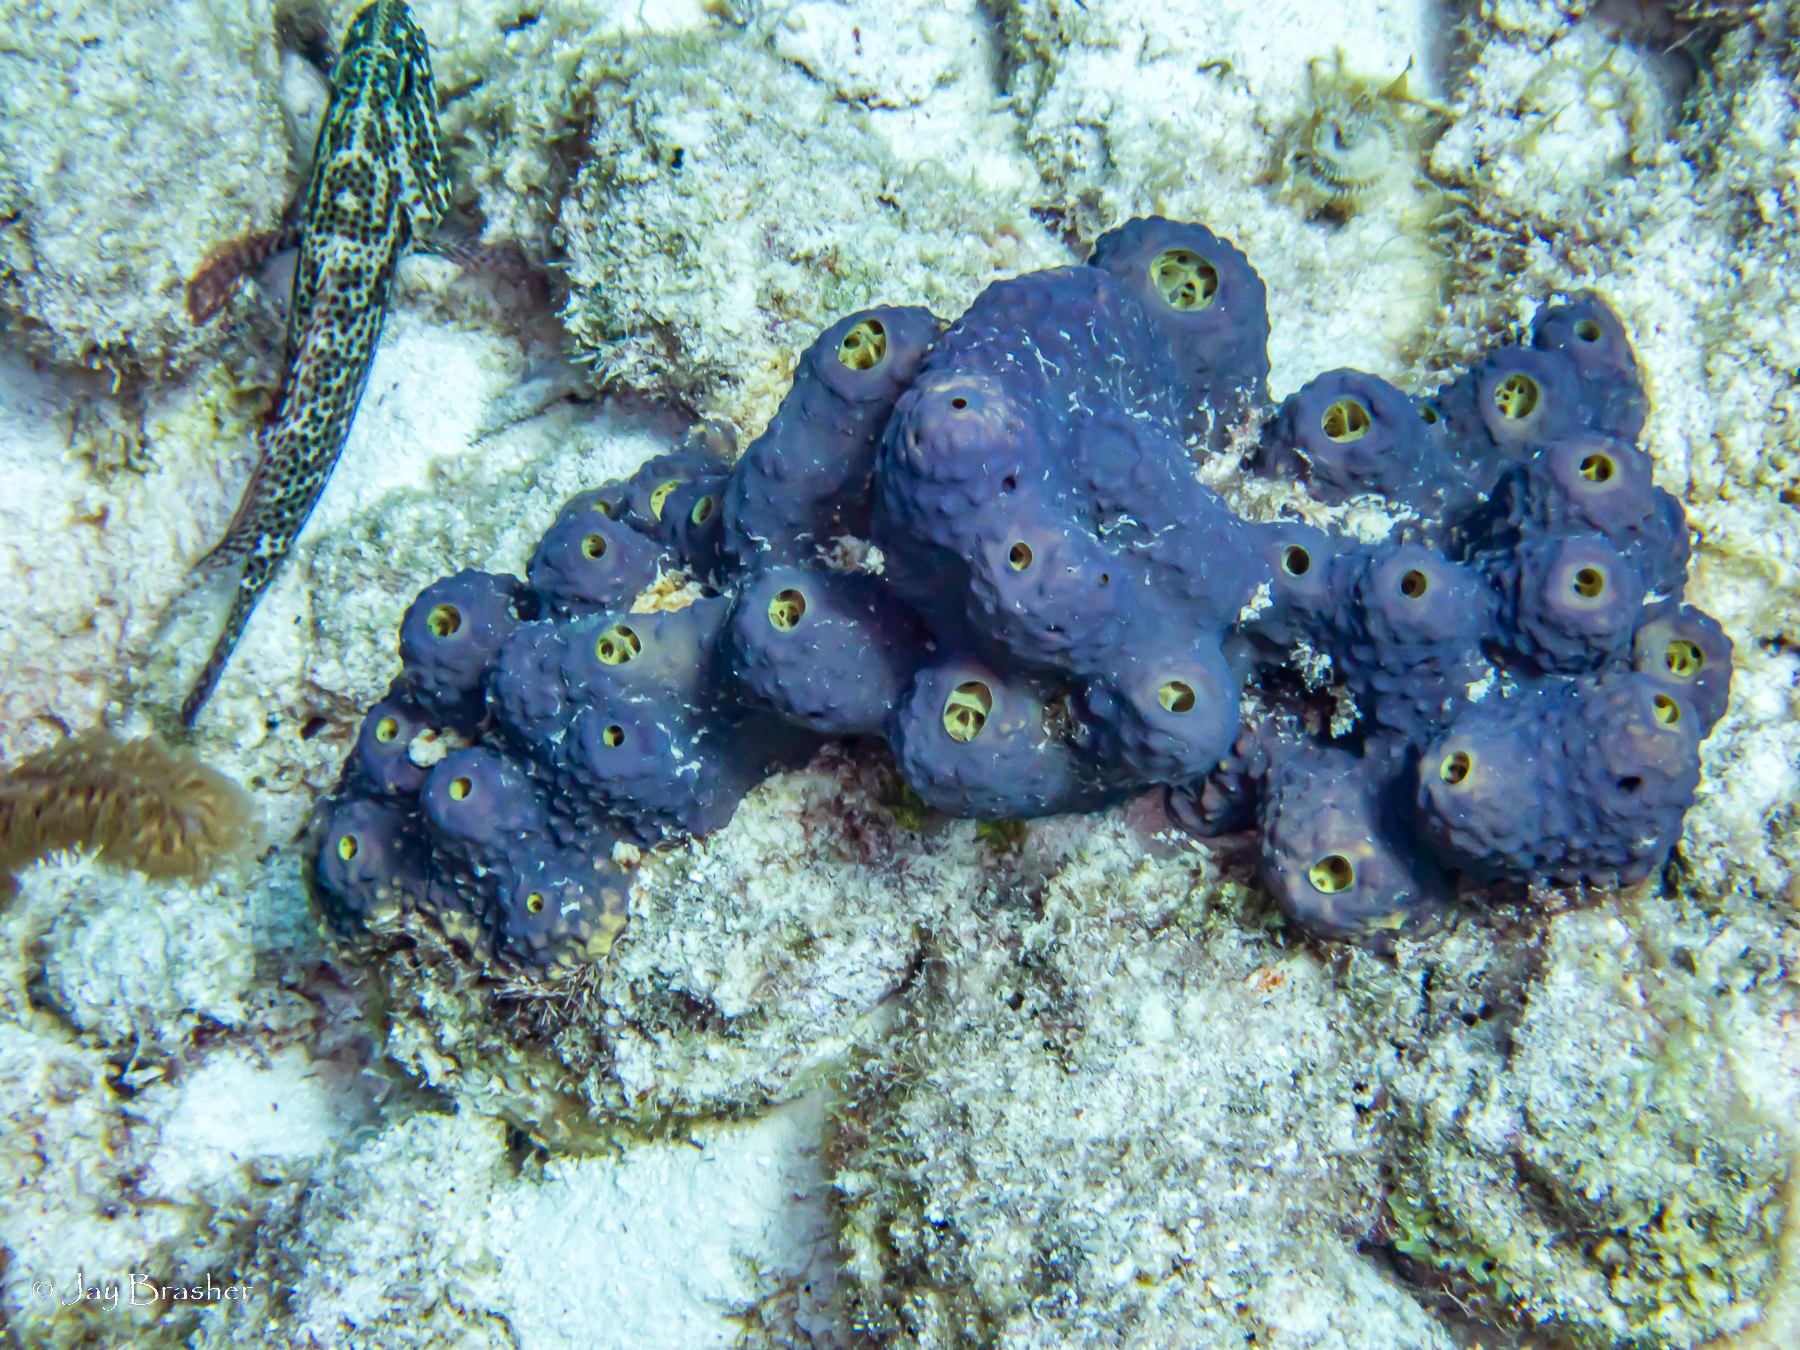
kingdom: Animalia
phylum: Porifera
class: Demospongiae
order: Verongiida
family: Aplysinidae
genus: Aiolochroia
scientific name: Aiolochroia crassa
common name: Branching tube sponge
